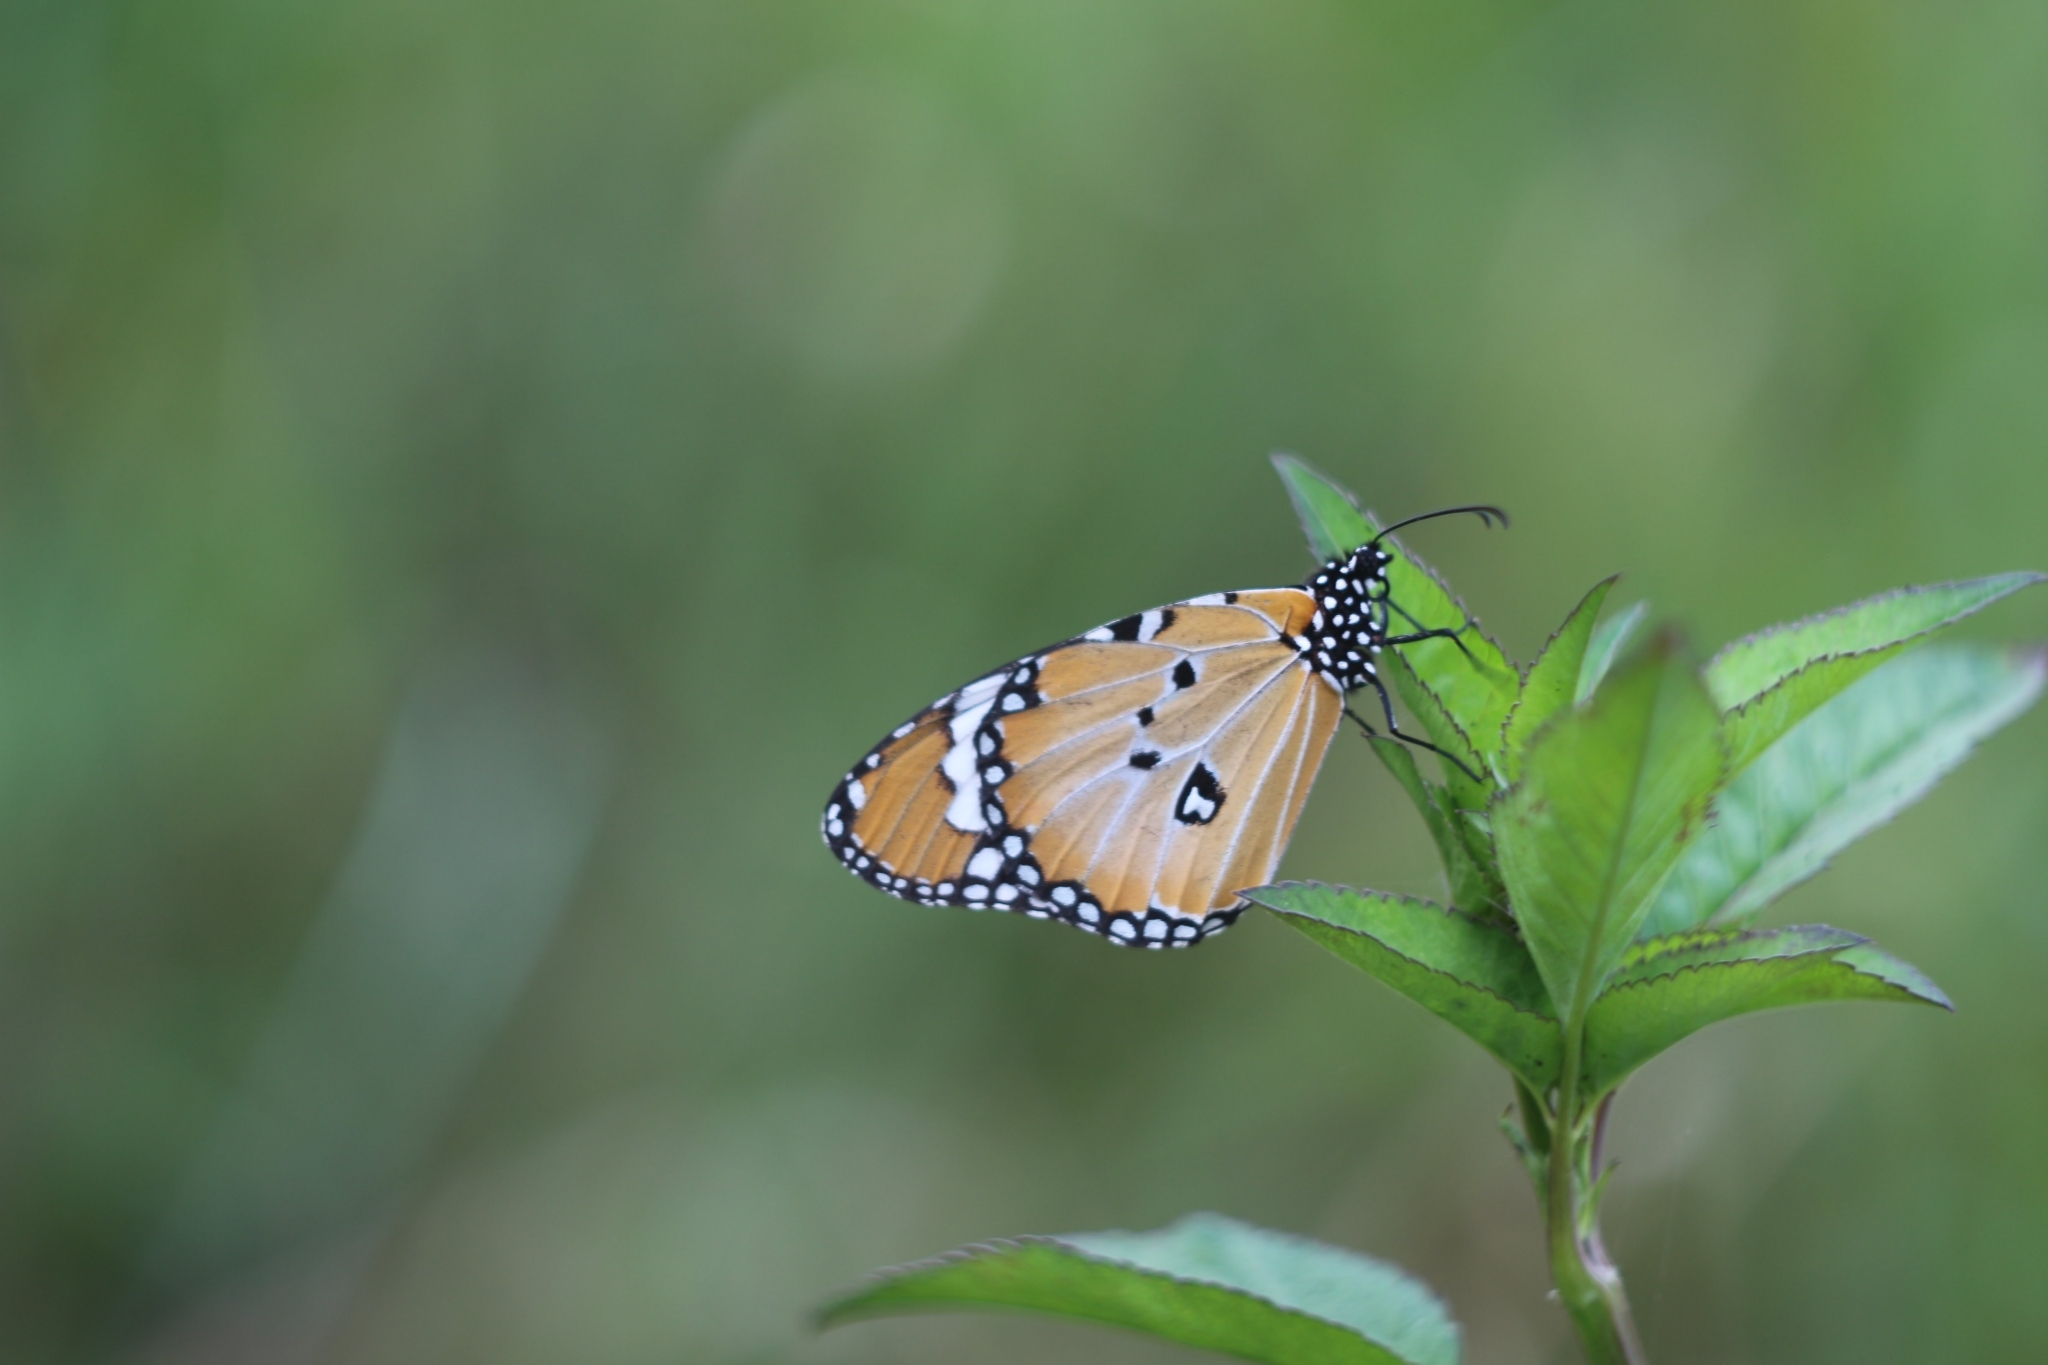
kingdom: Animalia
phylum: Arthropoda
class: Insecta
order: Lepidoptera
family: Nymphalidae
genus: Danaus
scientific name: Danaus chrysippus
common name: Plain tiger
